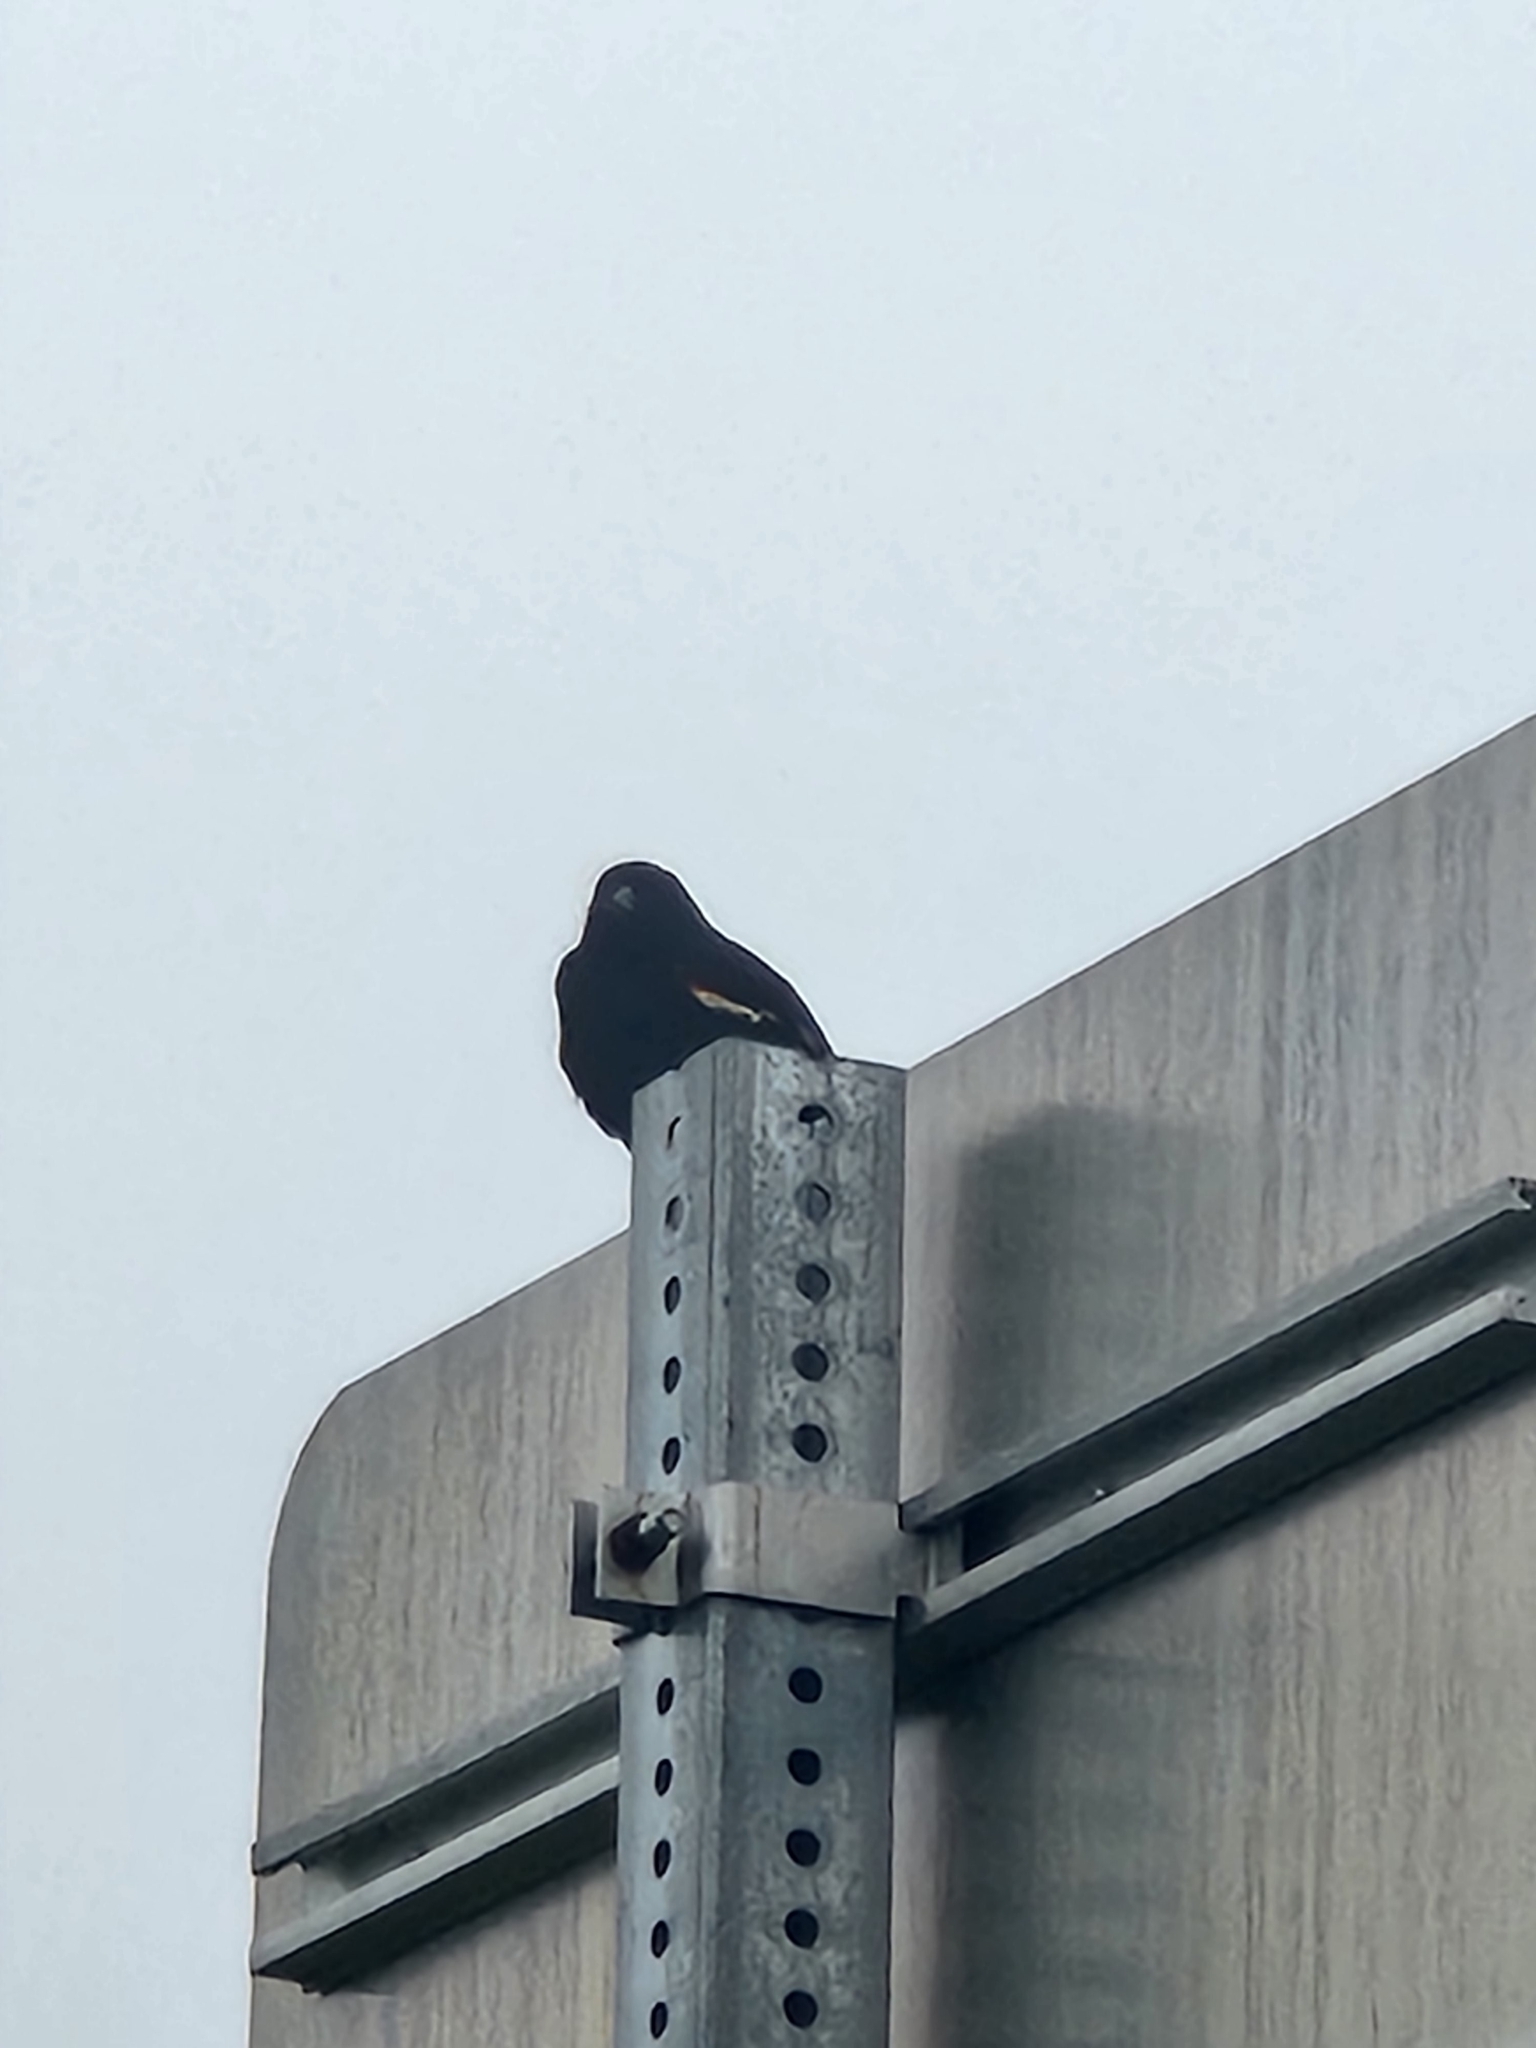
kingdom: Animalia
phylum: Chordata
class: Aves
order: Passeriformes
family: Icteridae
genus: Agelaius
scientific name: Agelaius phoeniceus
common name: Red-winged blackbird
